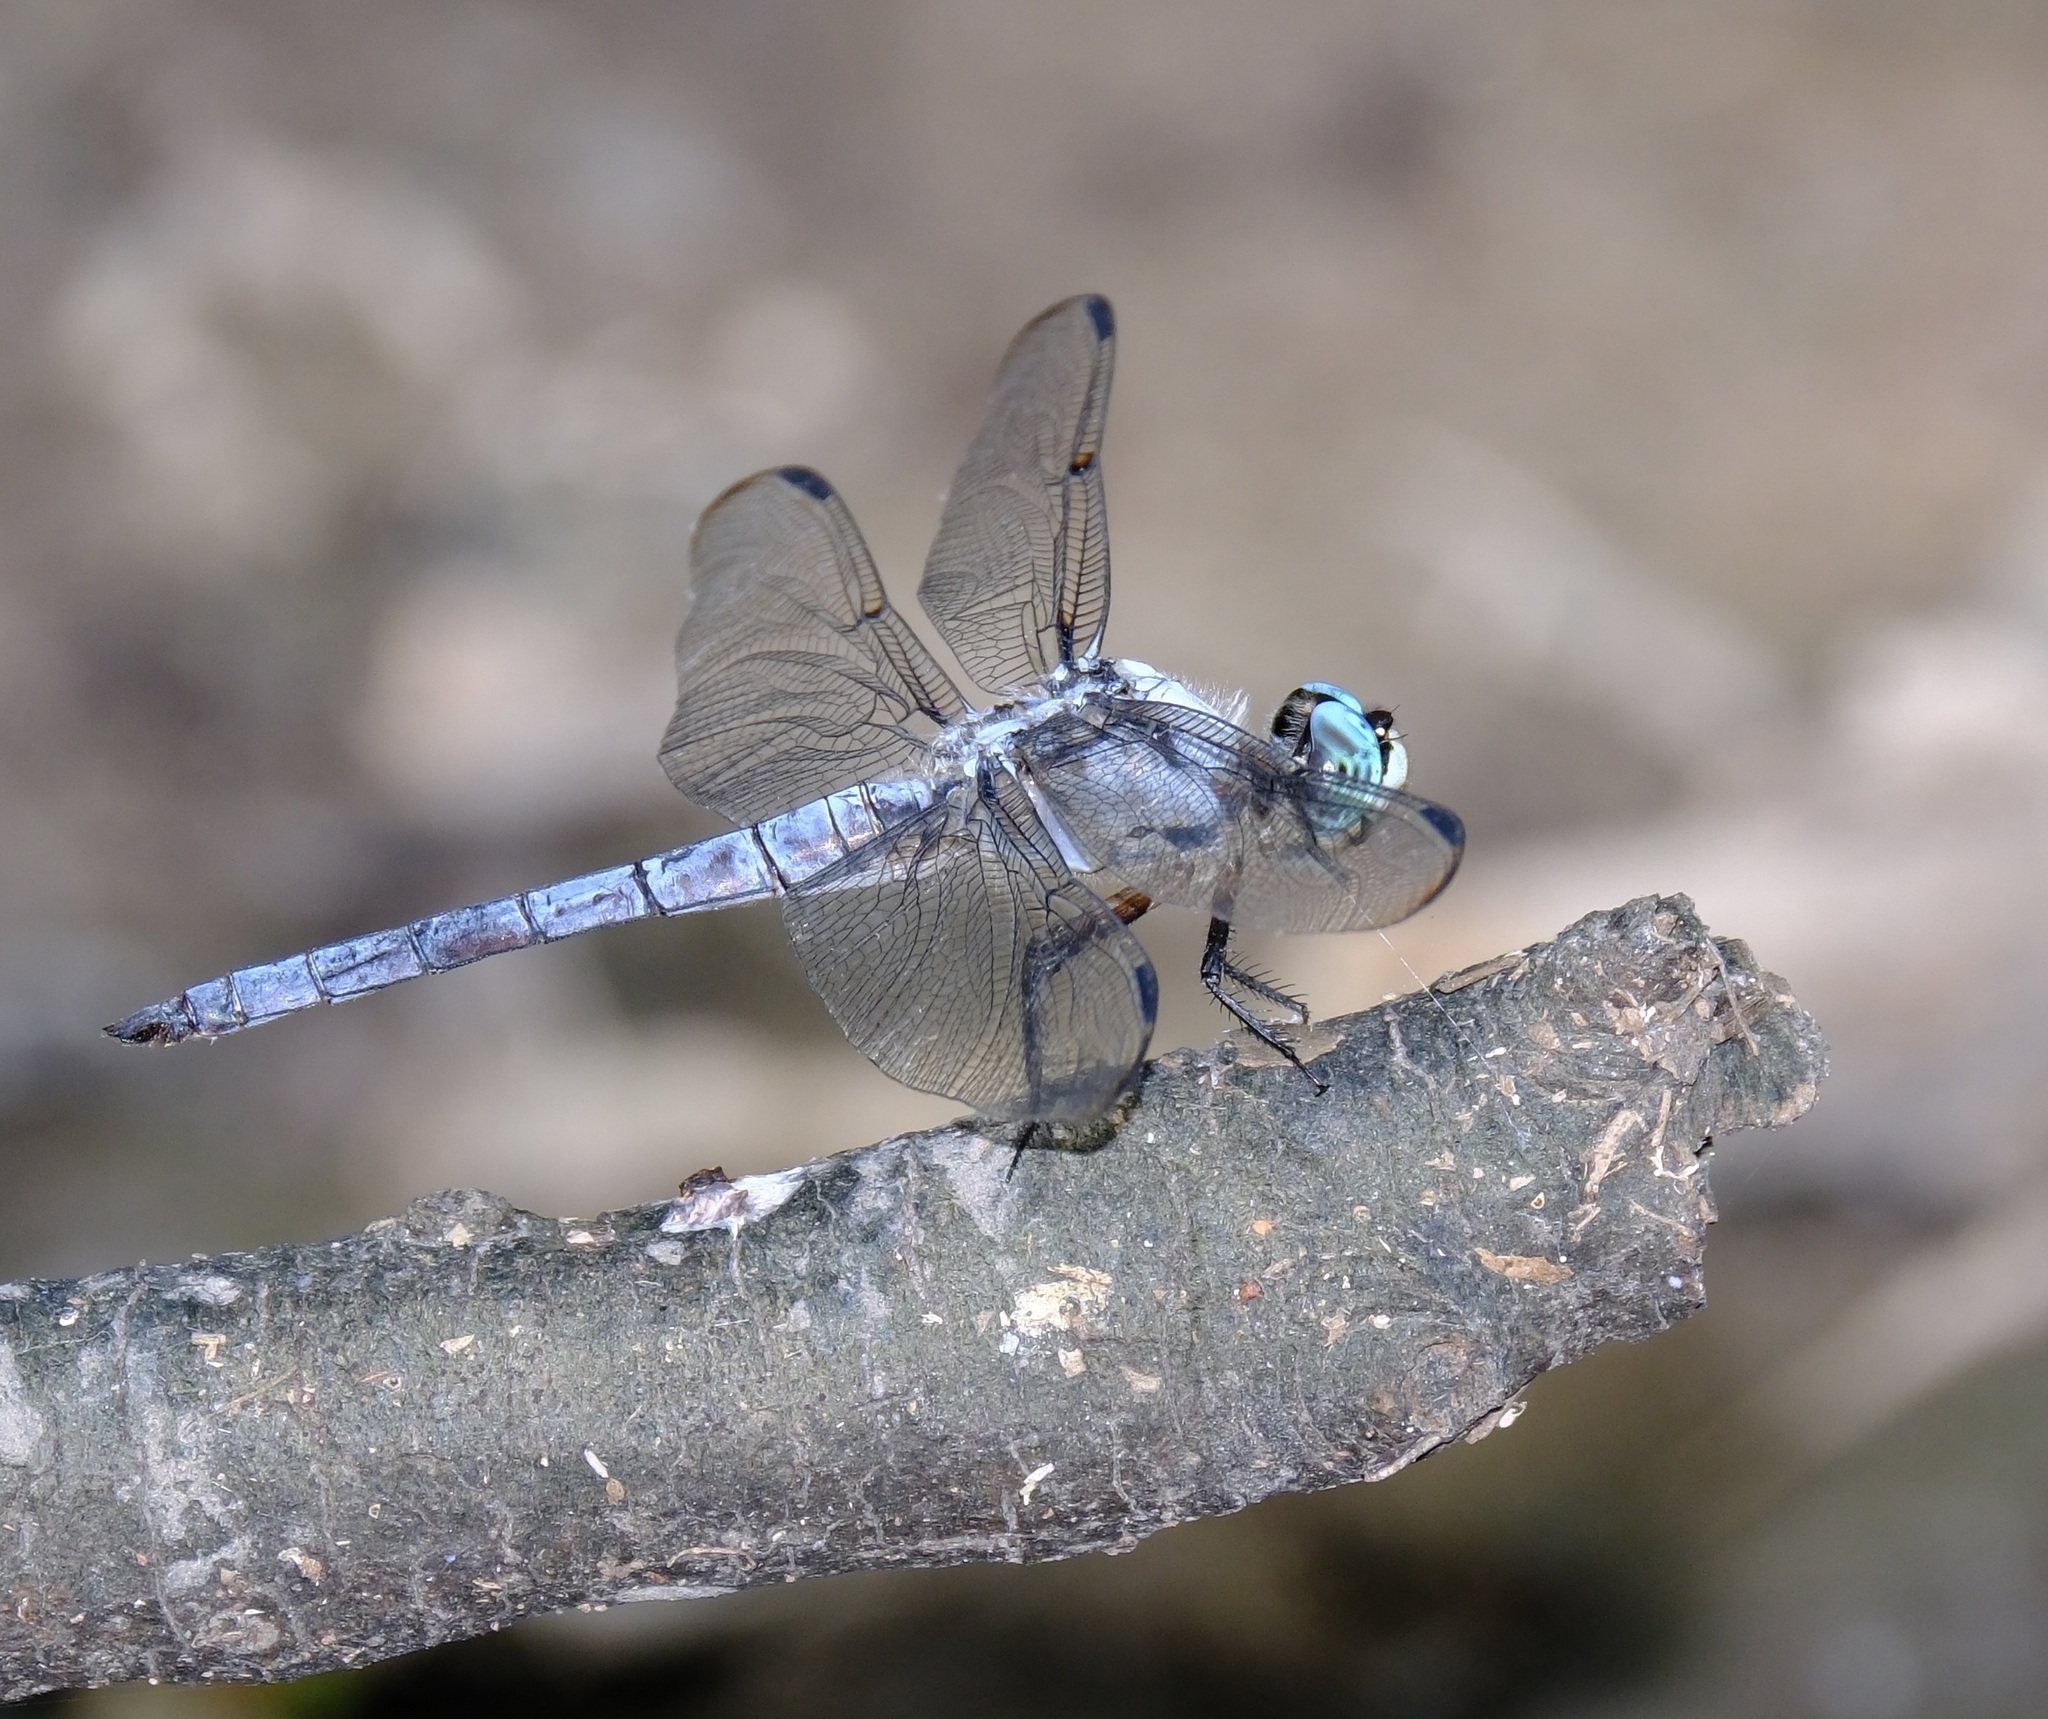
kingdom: Animalia
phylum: Arthropoda
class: Insecta
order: Odonata
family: Libellulidae
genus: Libellula
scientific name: Libellula vibrans
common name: Great blue skimmer
